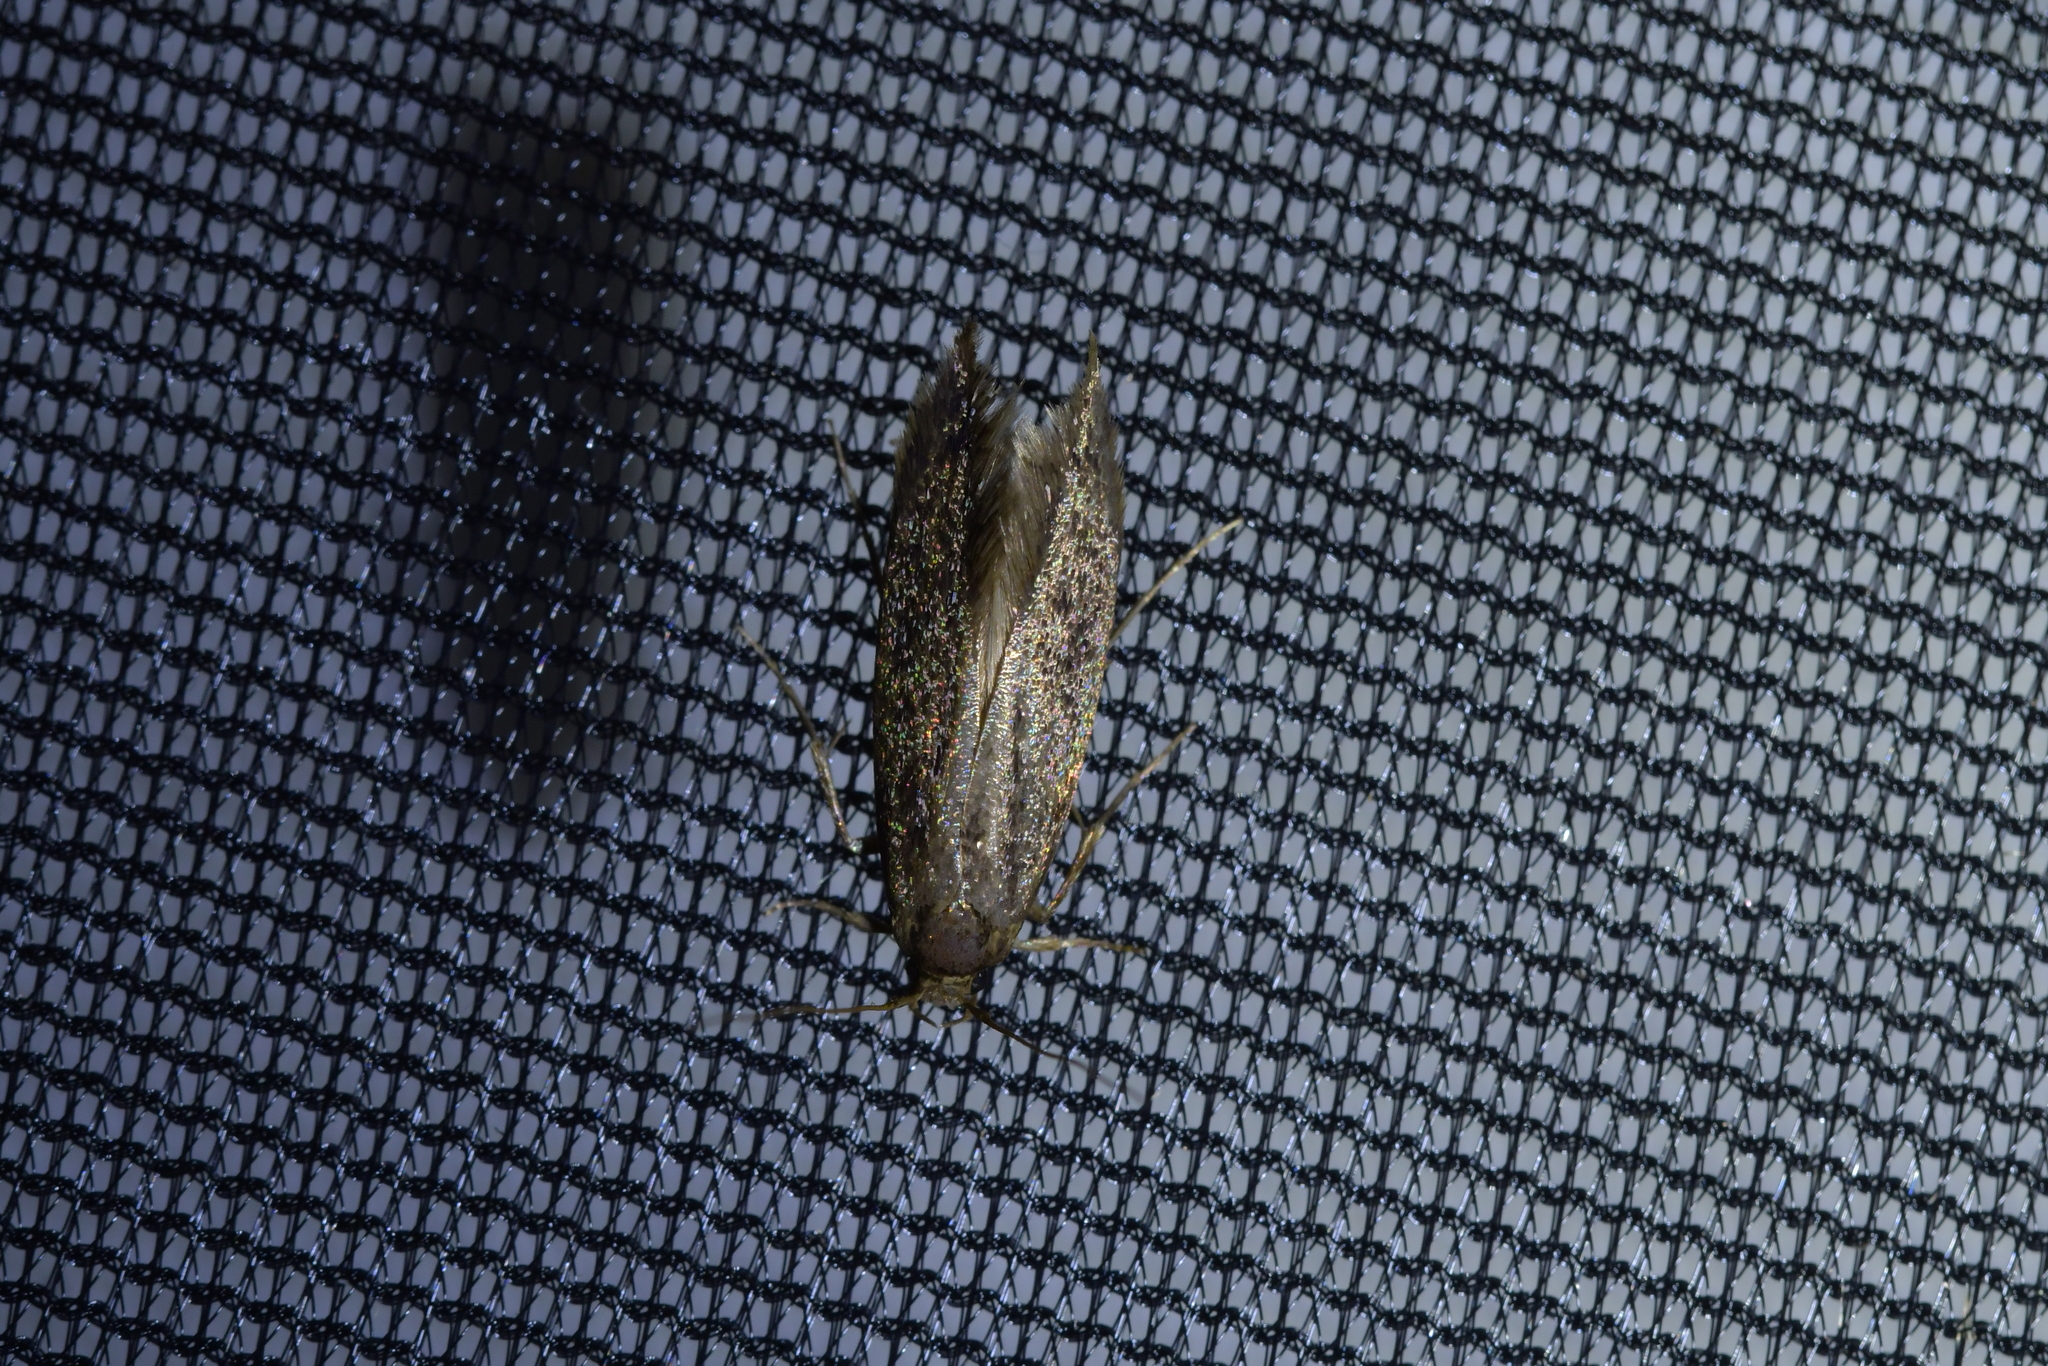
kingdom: Animalia
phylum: Arthropoda
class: Insecta
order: Lepidoptera
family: Tineidae
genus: Opogona
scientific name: Opogona omoscopa
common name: Moth
